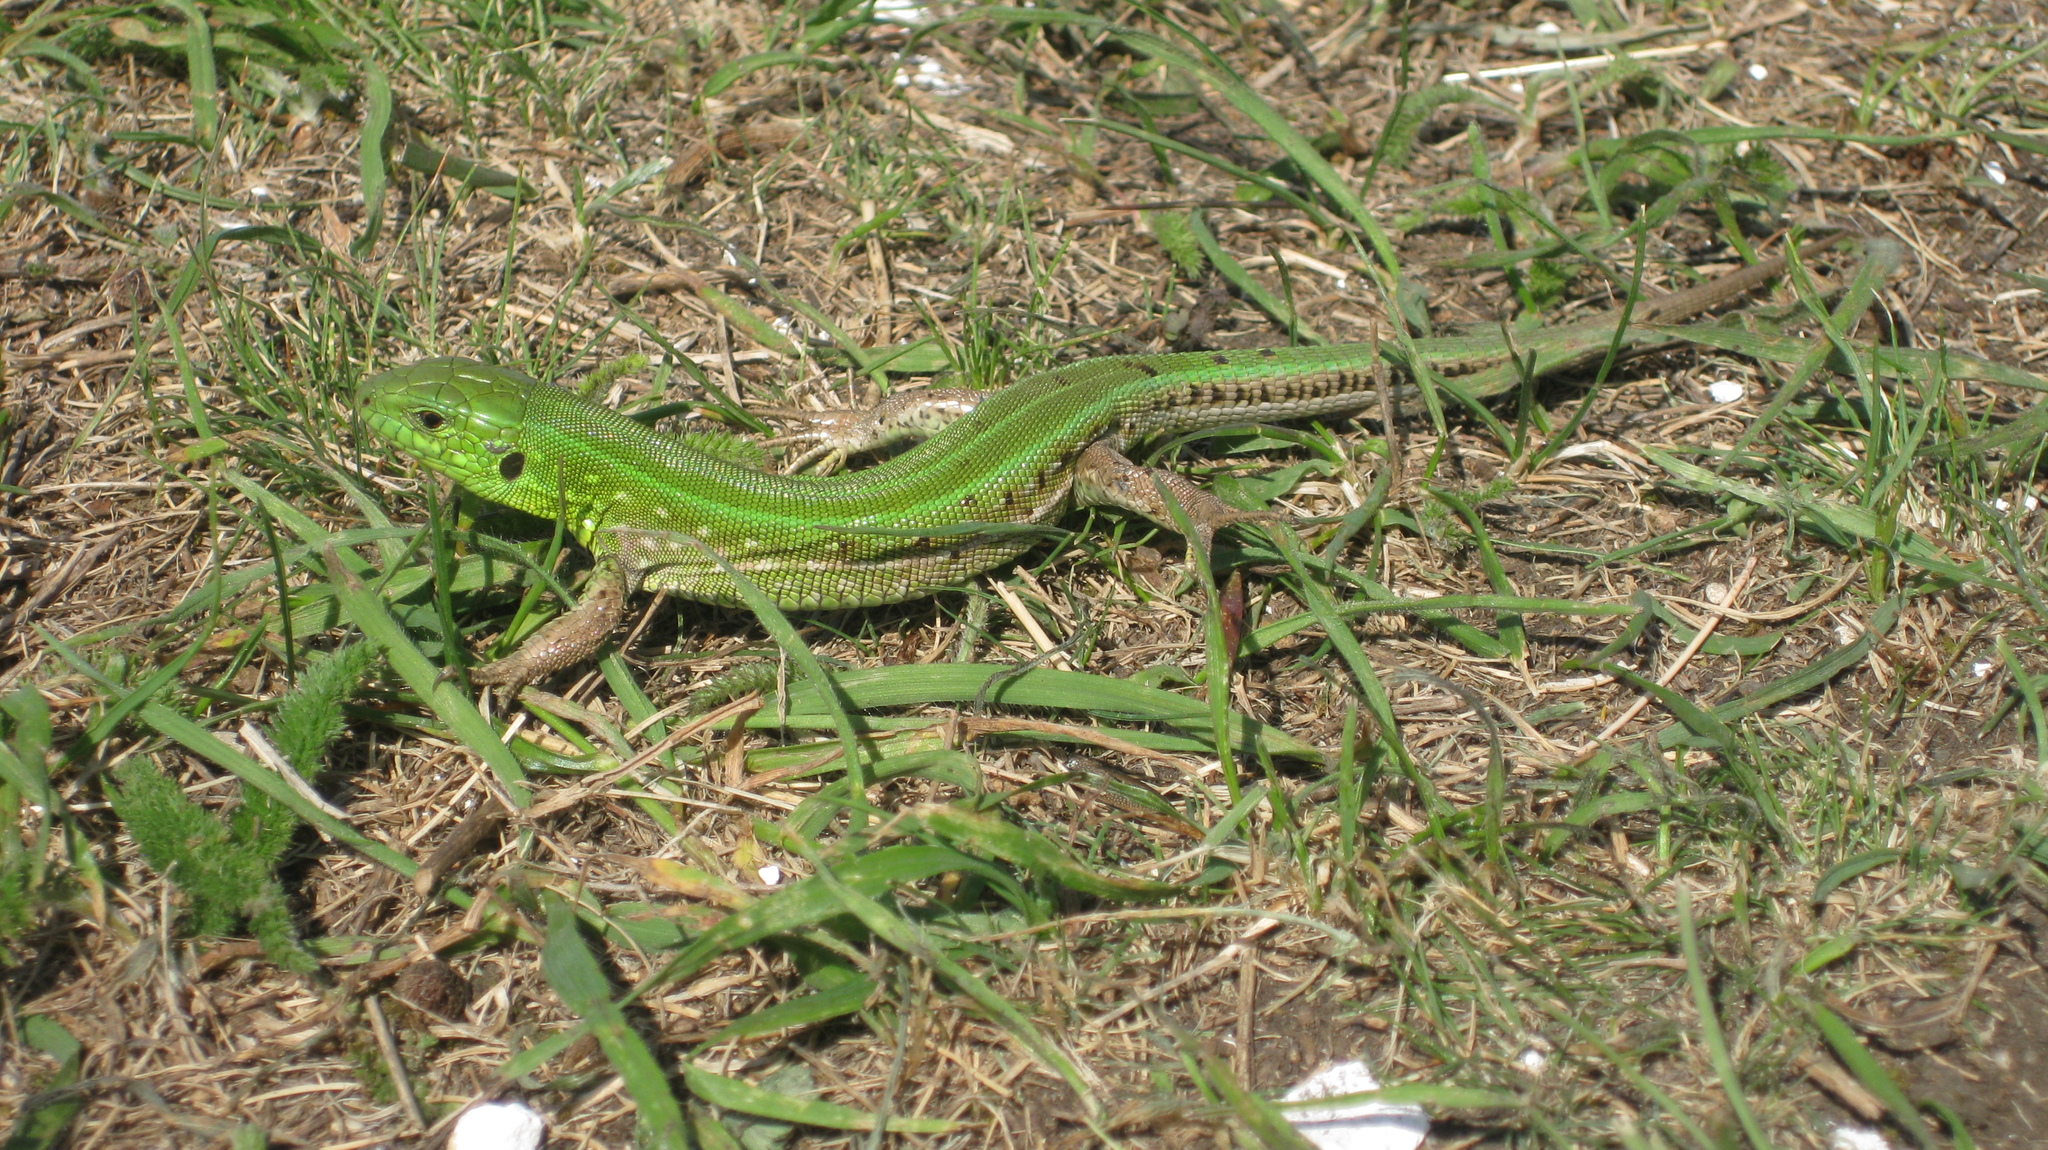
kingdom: Animalia
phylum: Chordata
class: Squamata
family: Lacertidae
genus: Lacerta
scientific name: Lacerta agilis
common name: Sand lizard
